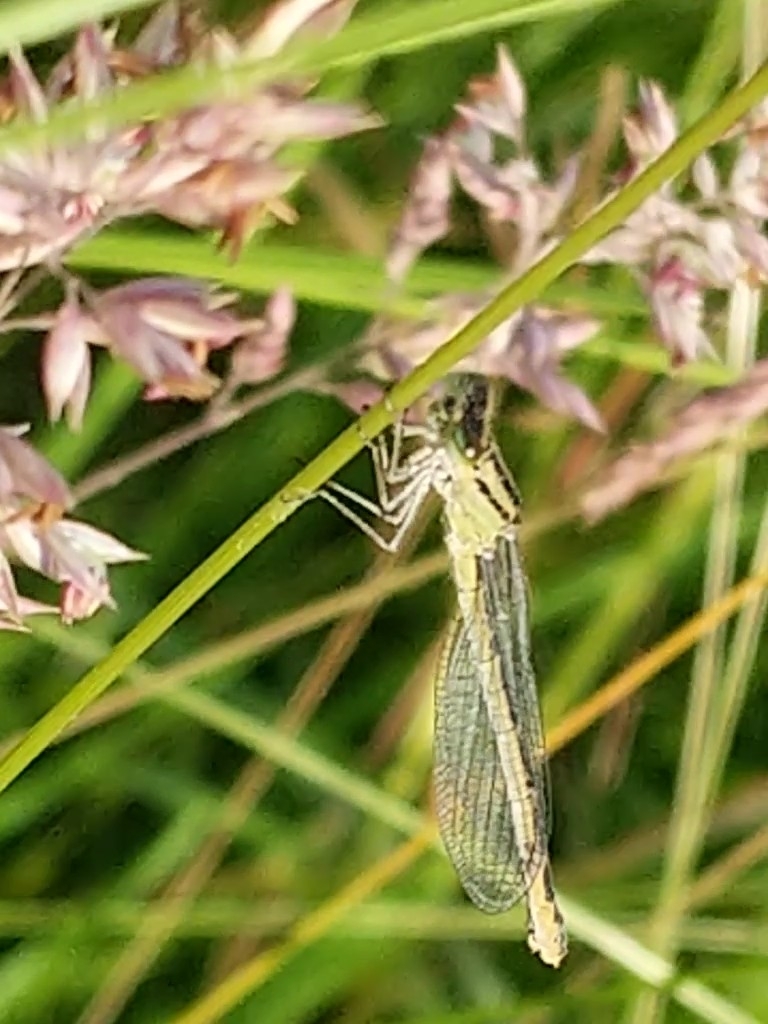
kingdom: Animalia
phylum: Arthropoda
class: Insecta
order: Odonata
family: Coenagrionidae
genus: Enallagma
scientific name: Enallagma cyathigerum
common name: Common blue damselfly
